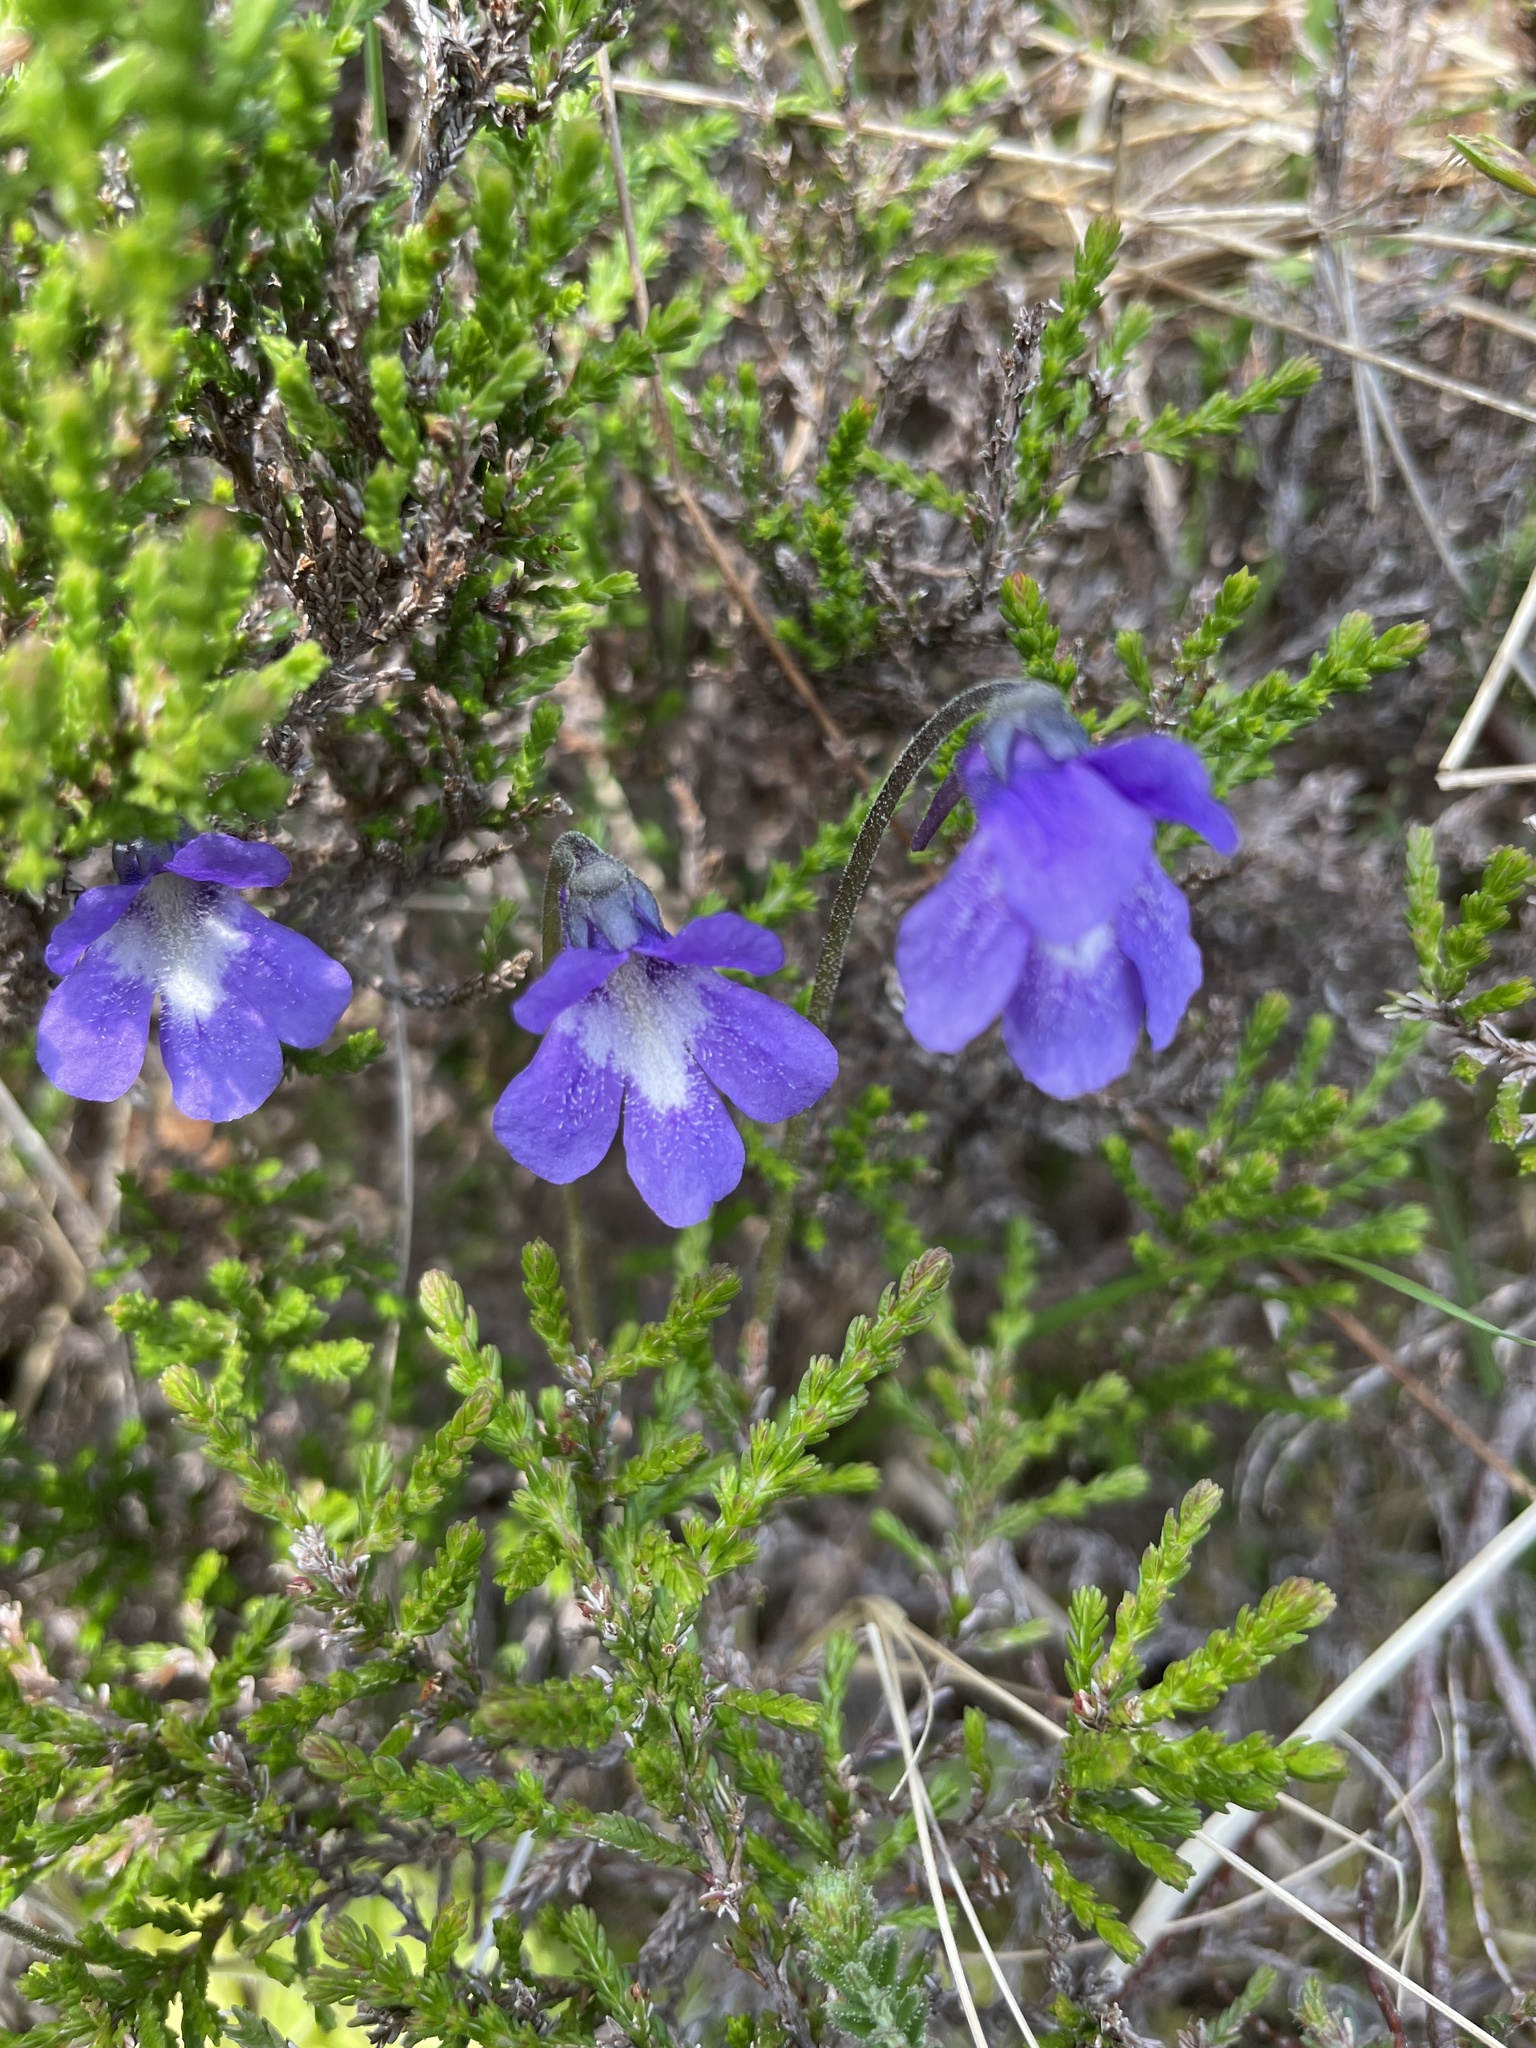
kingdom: Plantae
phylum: Tracheophyta
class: Magnoliopsida
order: Lamiales
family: Lentibulariaceae
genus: Pinguicula
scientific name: Pinguicula vulgaris
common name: Common butterwort
